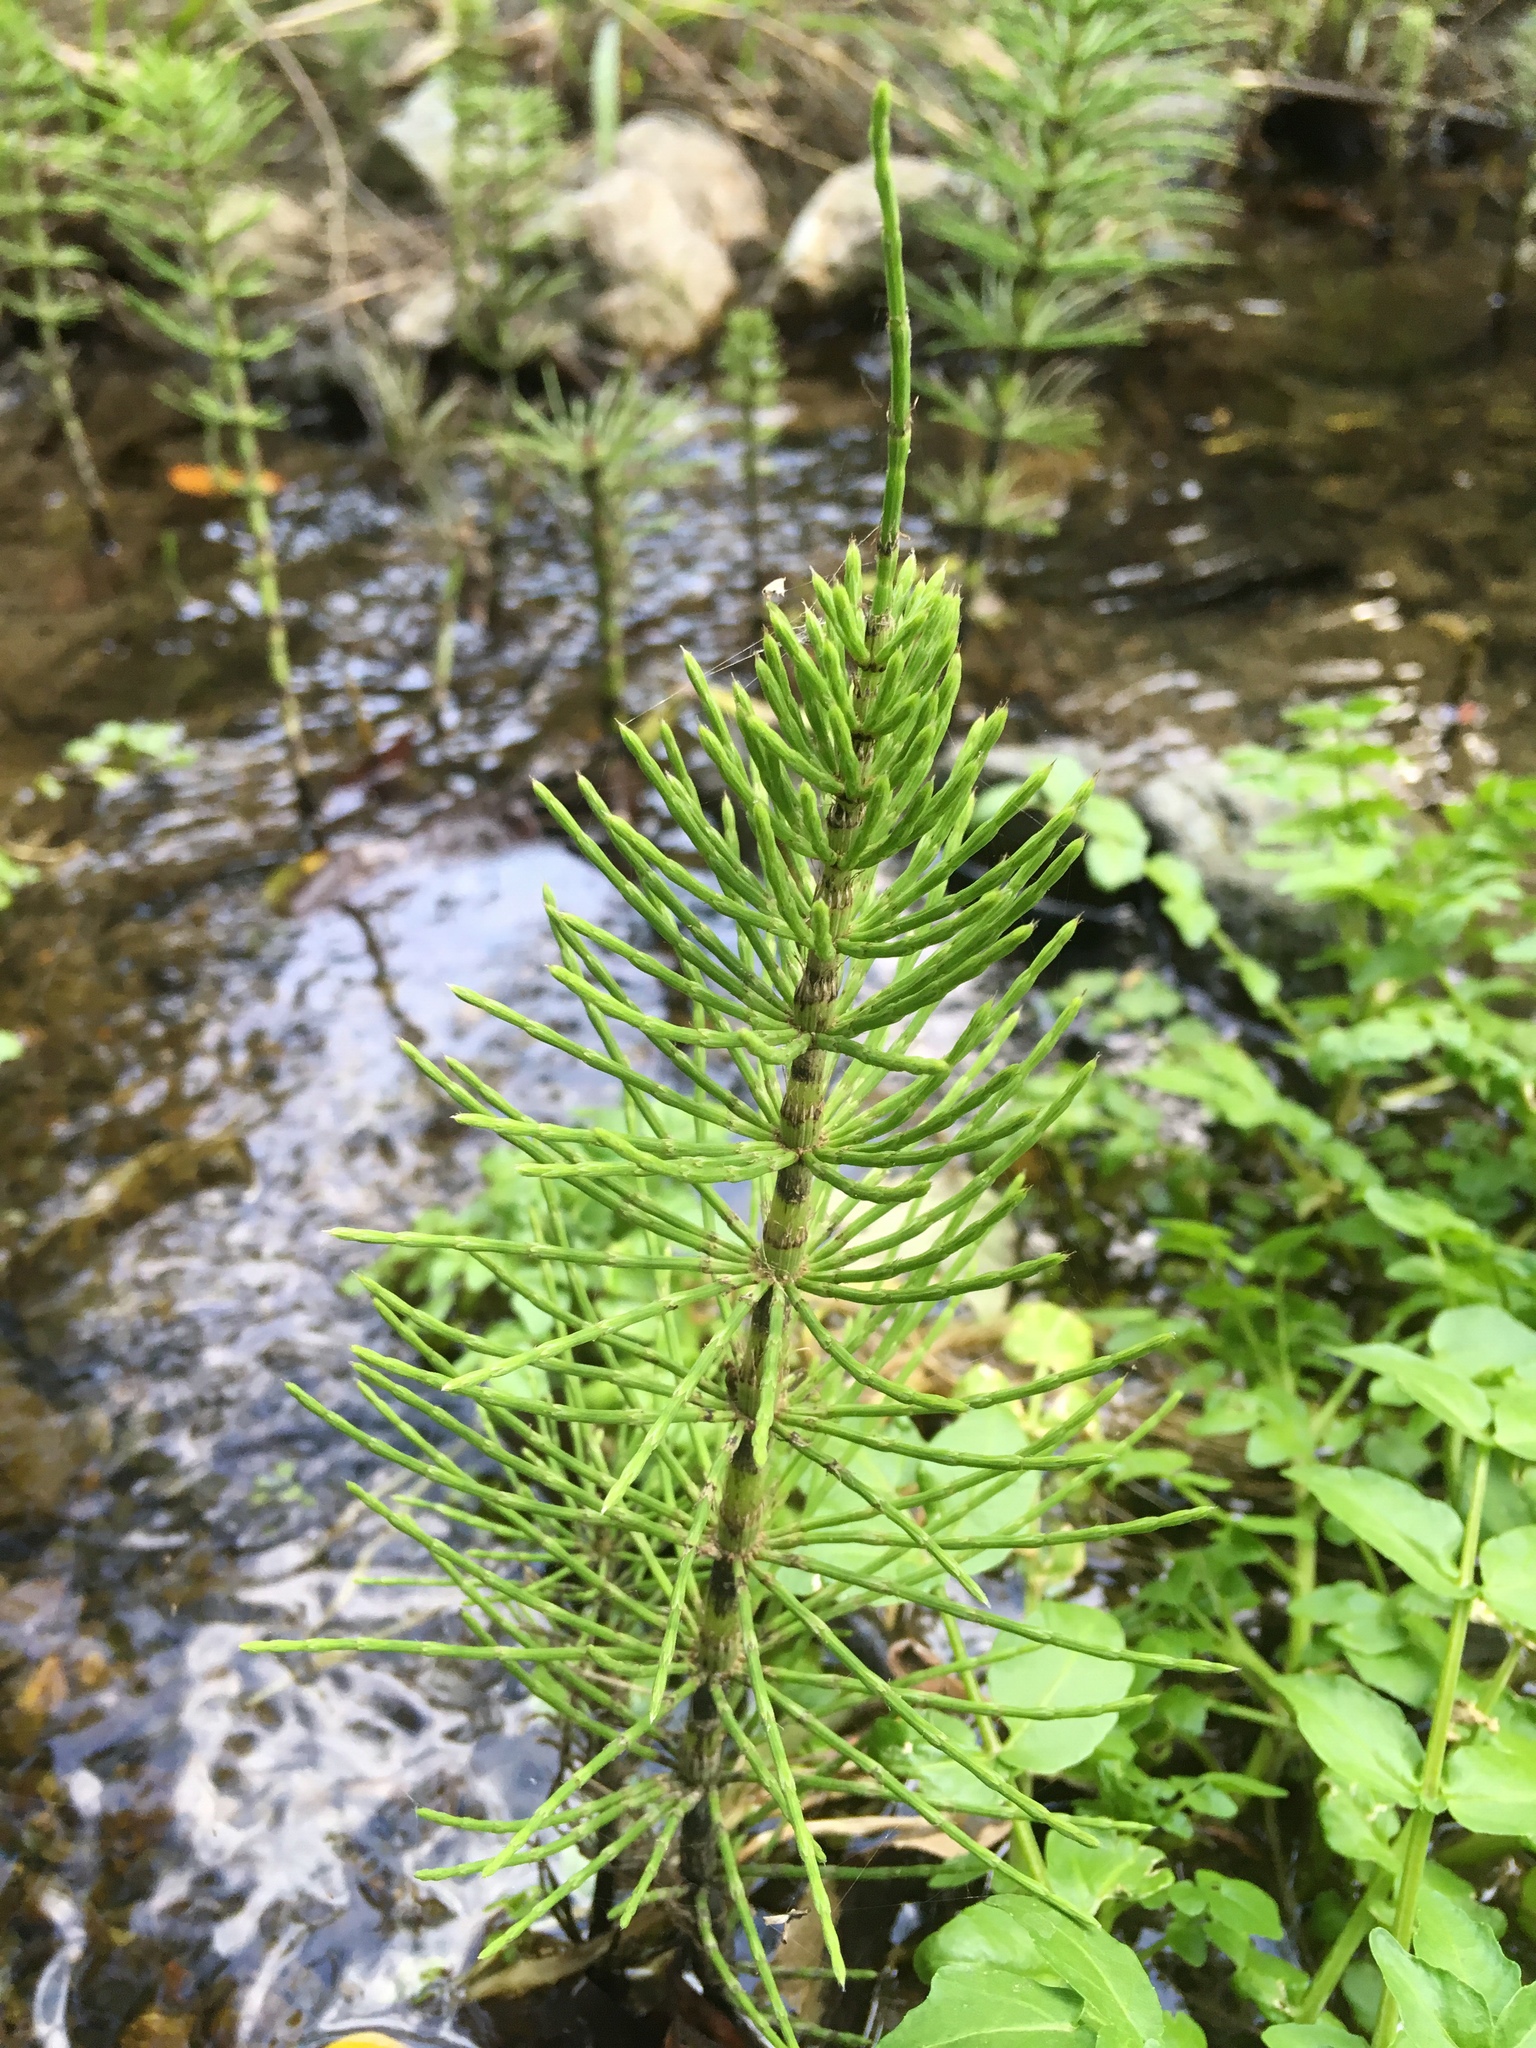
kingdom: Plantae
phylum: Tracheophyta
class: Polypodiopsida
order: Equisetales
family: Equisetaceae
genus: Equisetum
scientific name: Equisetum telmateia
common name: Great horsetail
